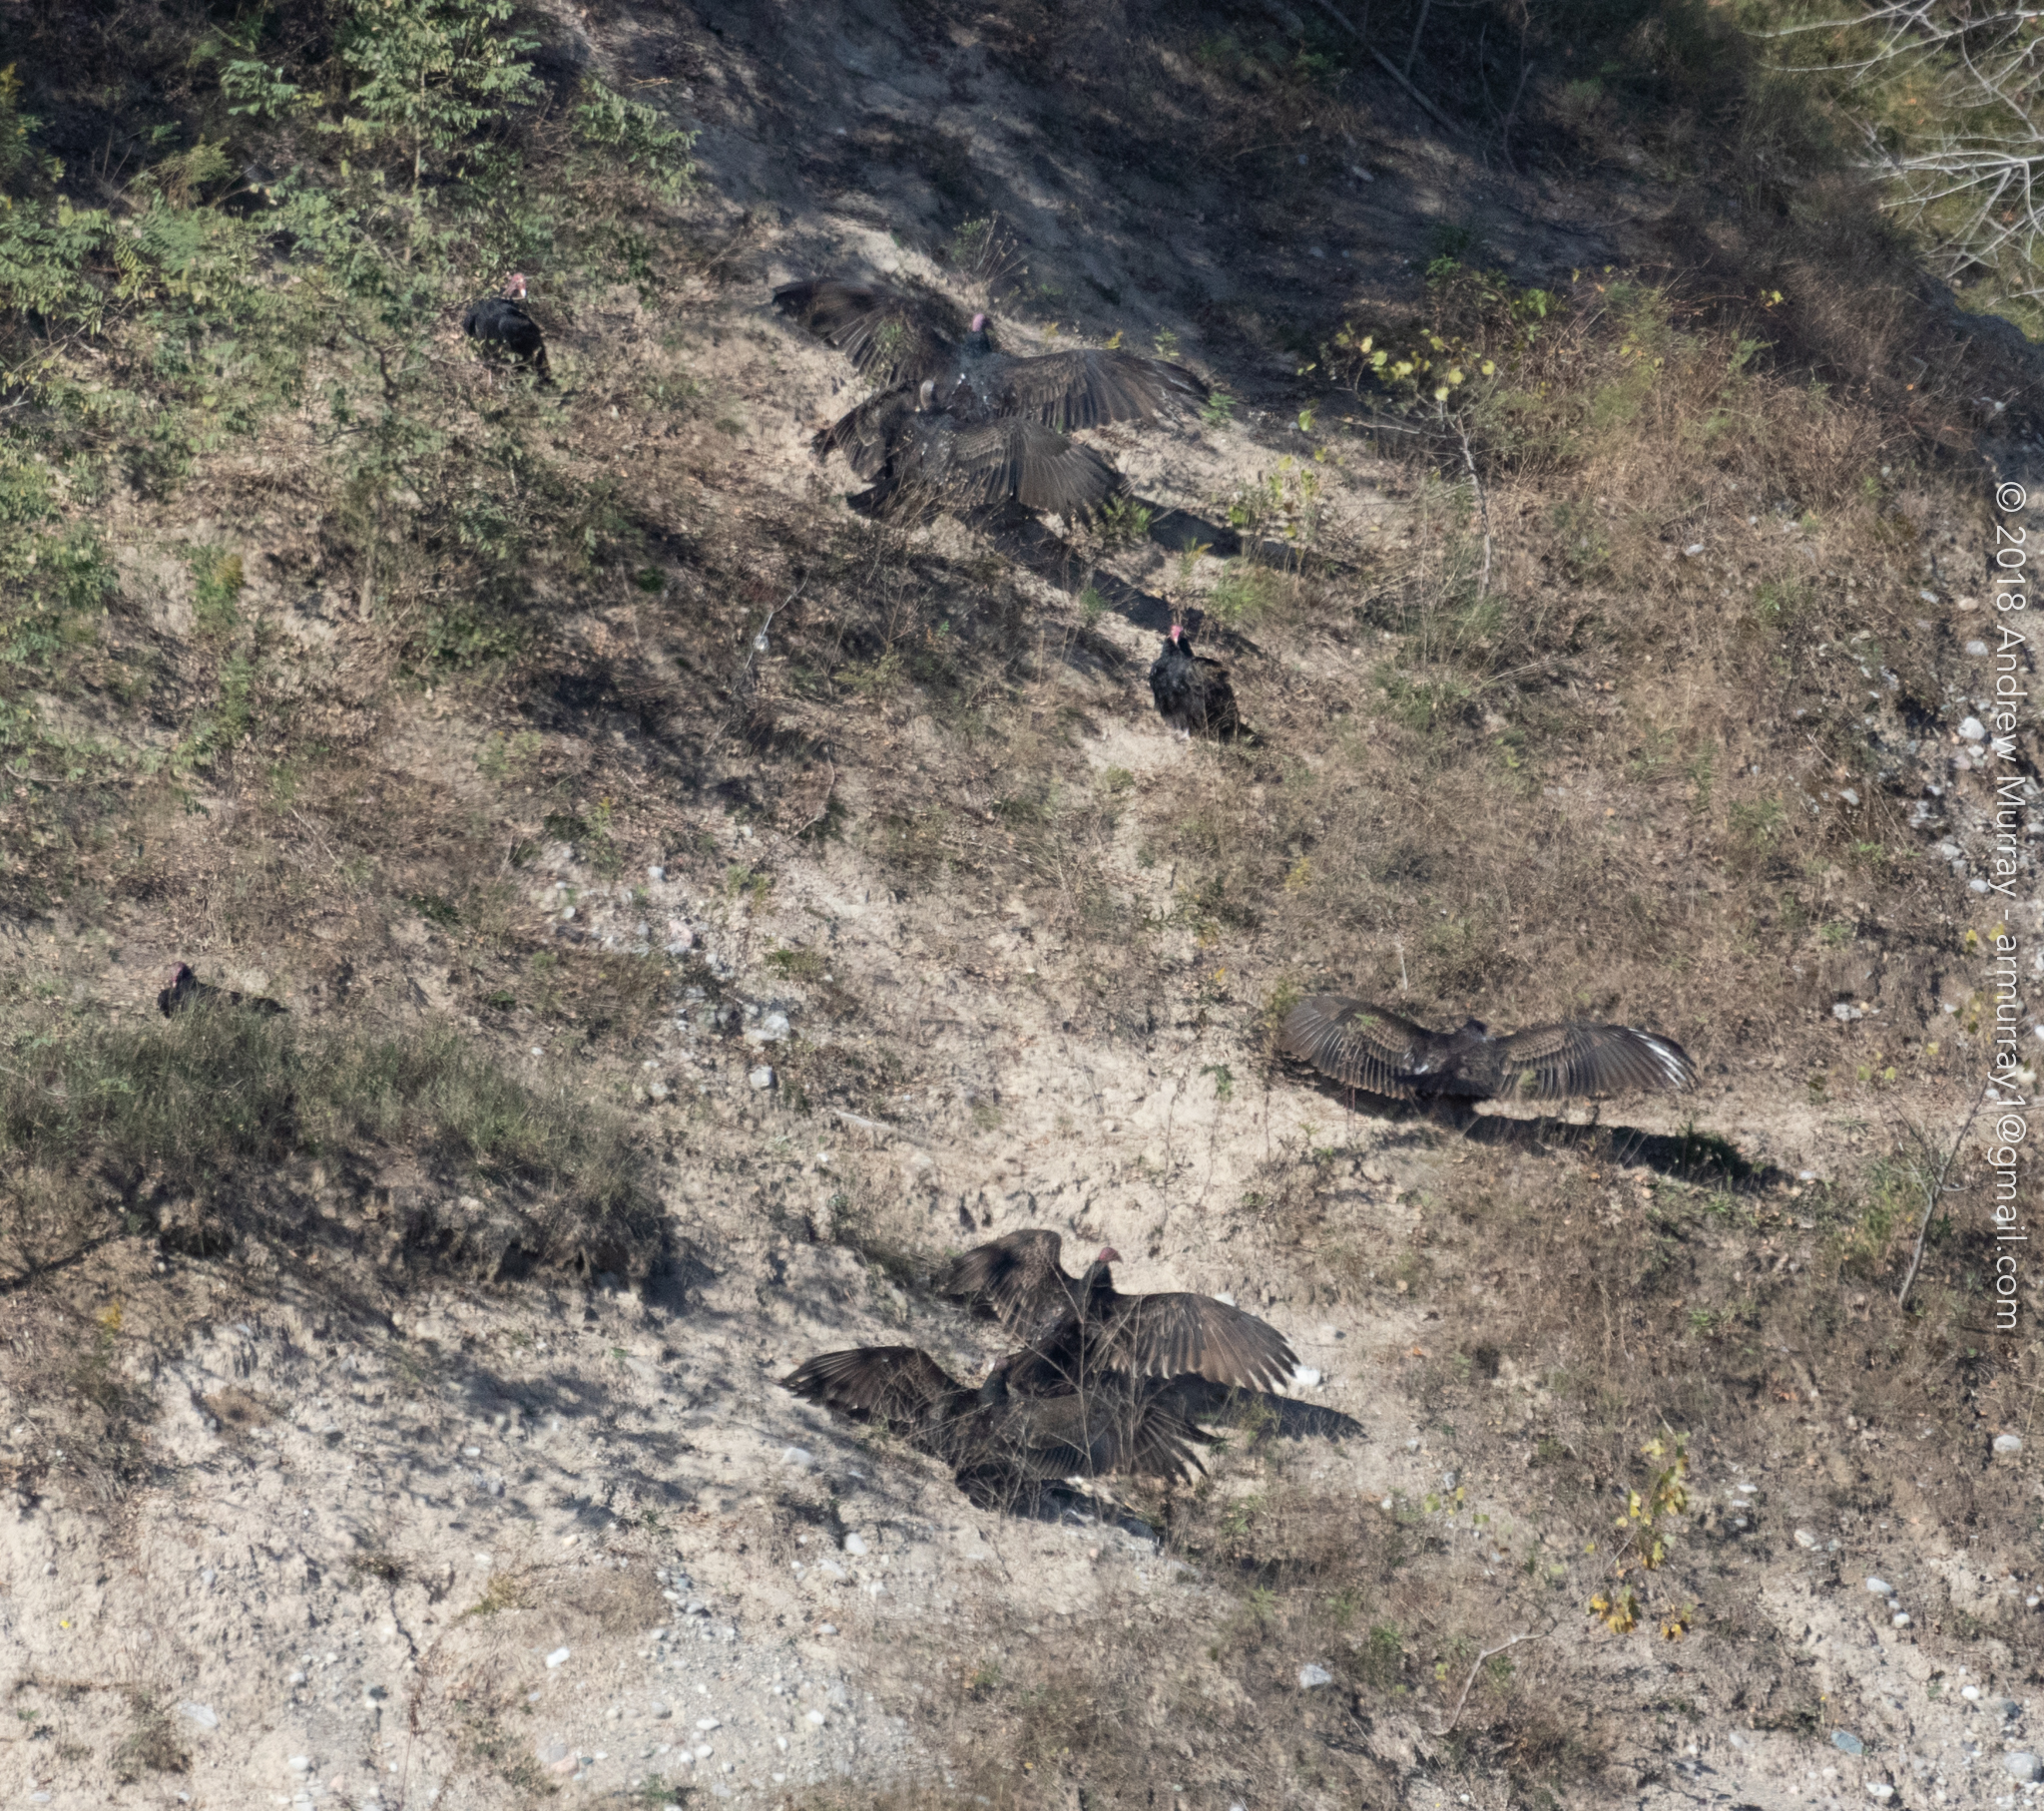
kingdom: Animalia
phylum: Chordata
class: Aves
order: Accipitriformes
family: Cathartidae
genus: Cathartes
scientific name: Cathartes aura
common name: Turkey vulture
